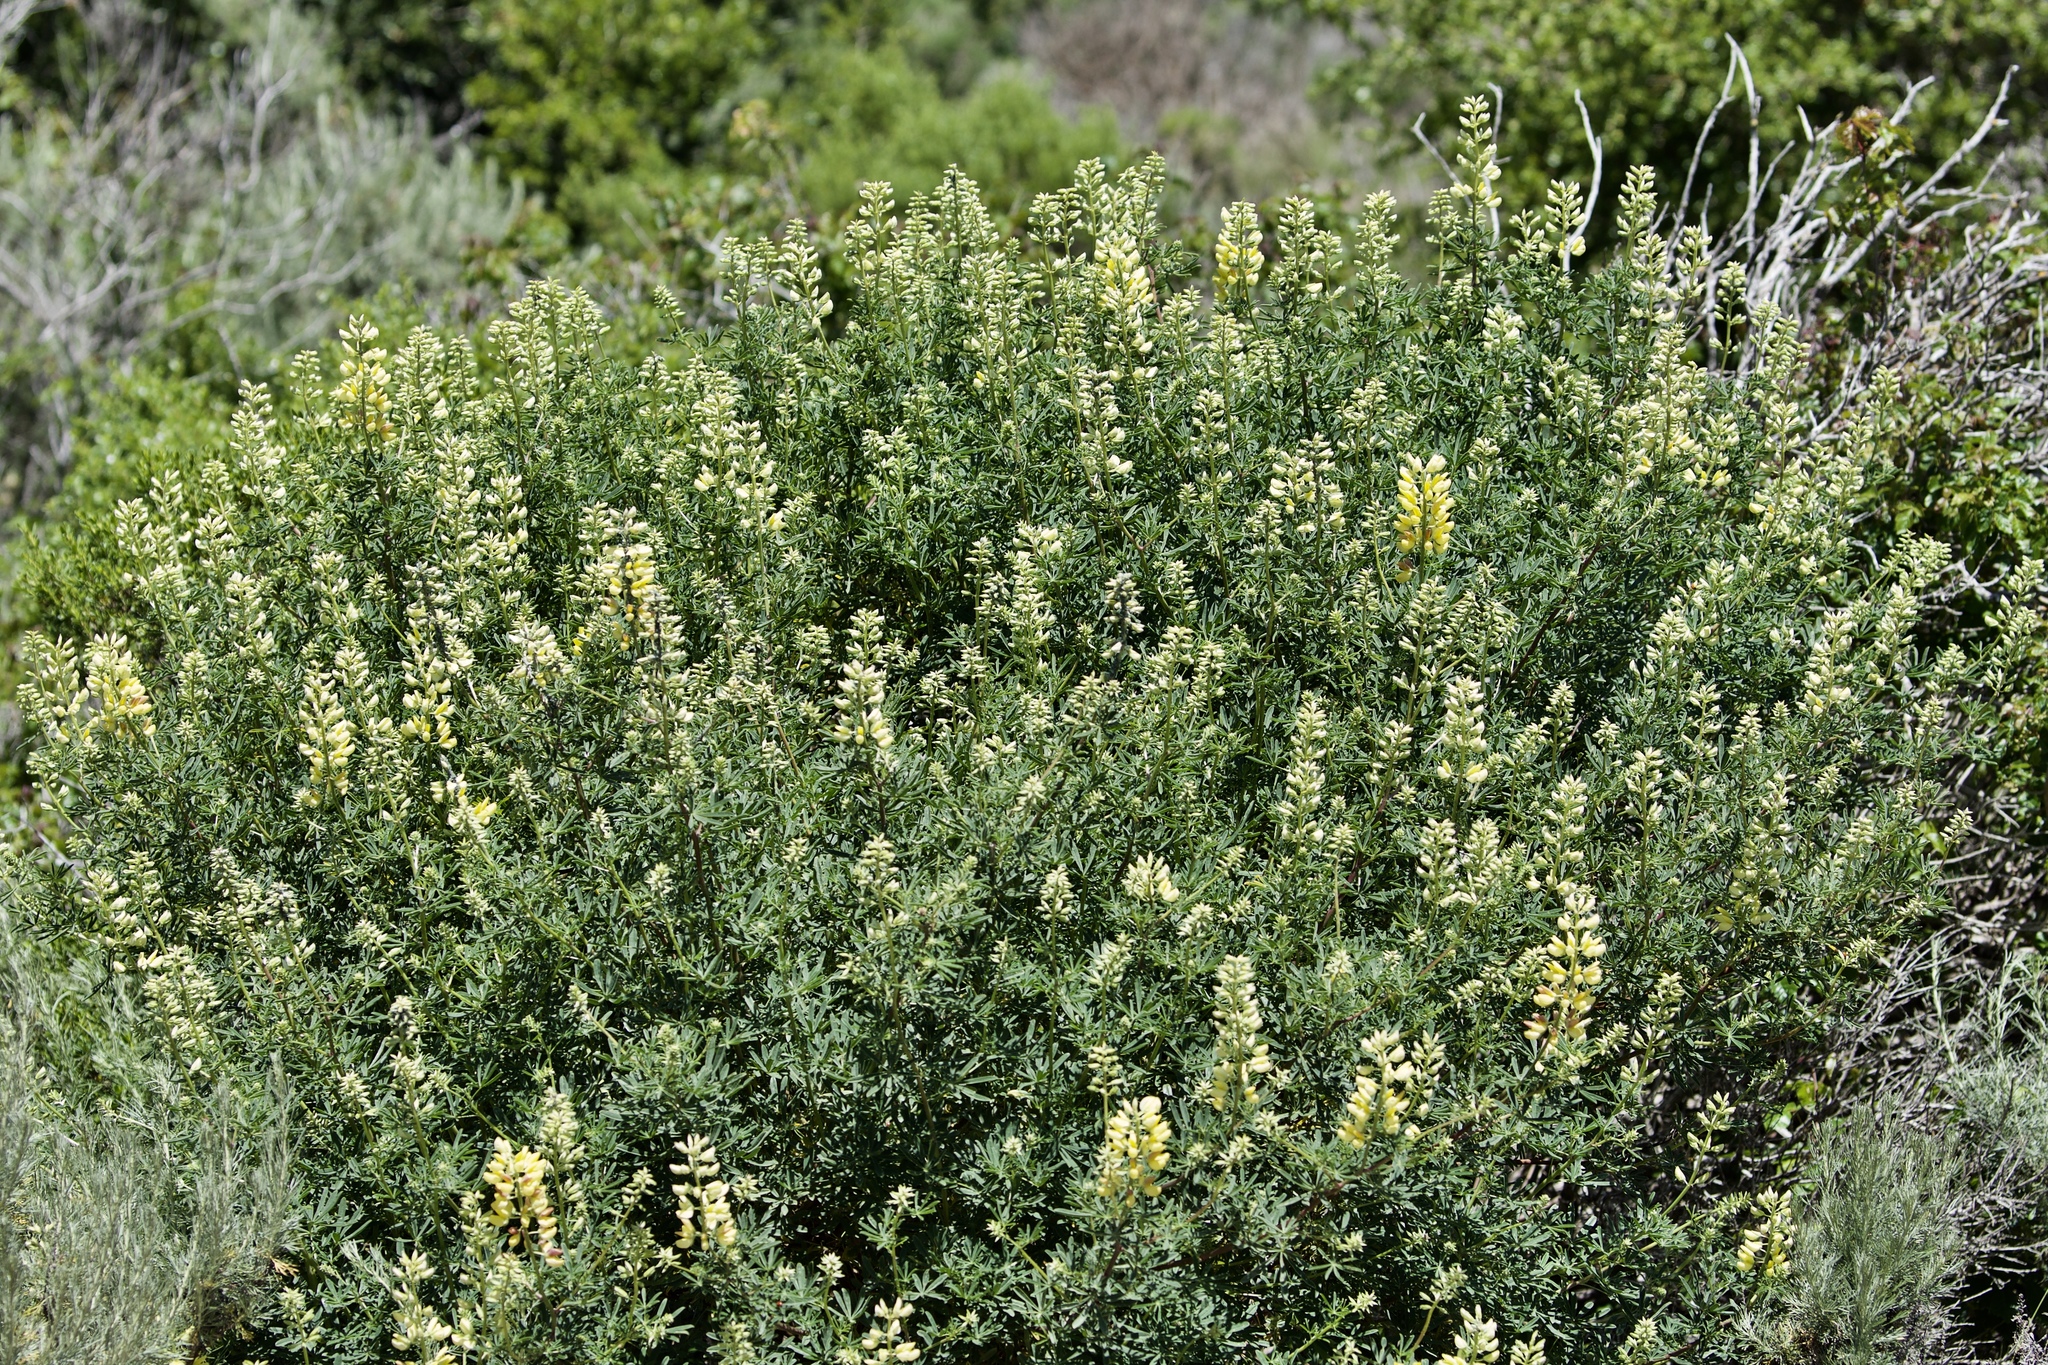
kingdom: Plantae
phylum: Tracheophyta
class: Magnoliopsida
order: Fabales
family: Fabaceae
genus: Lupinus
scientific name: Lupinus arboreus
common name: Yellow bush lupine
